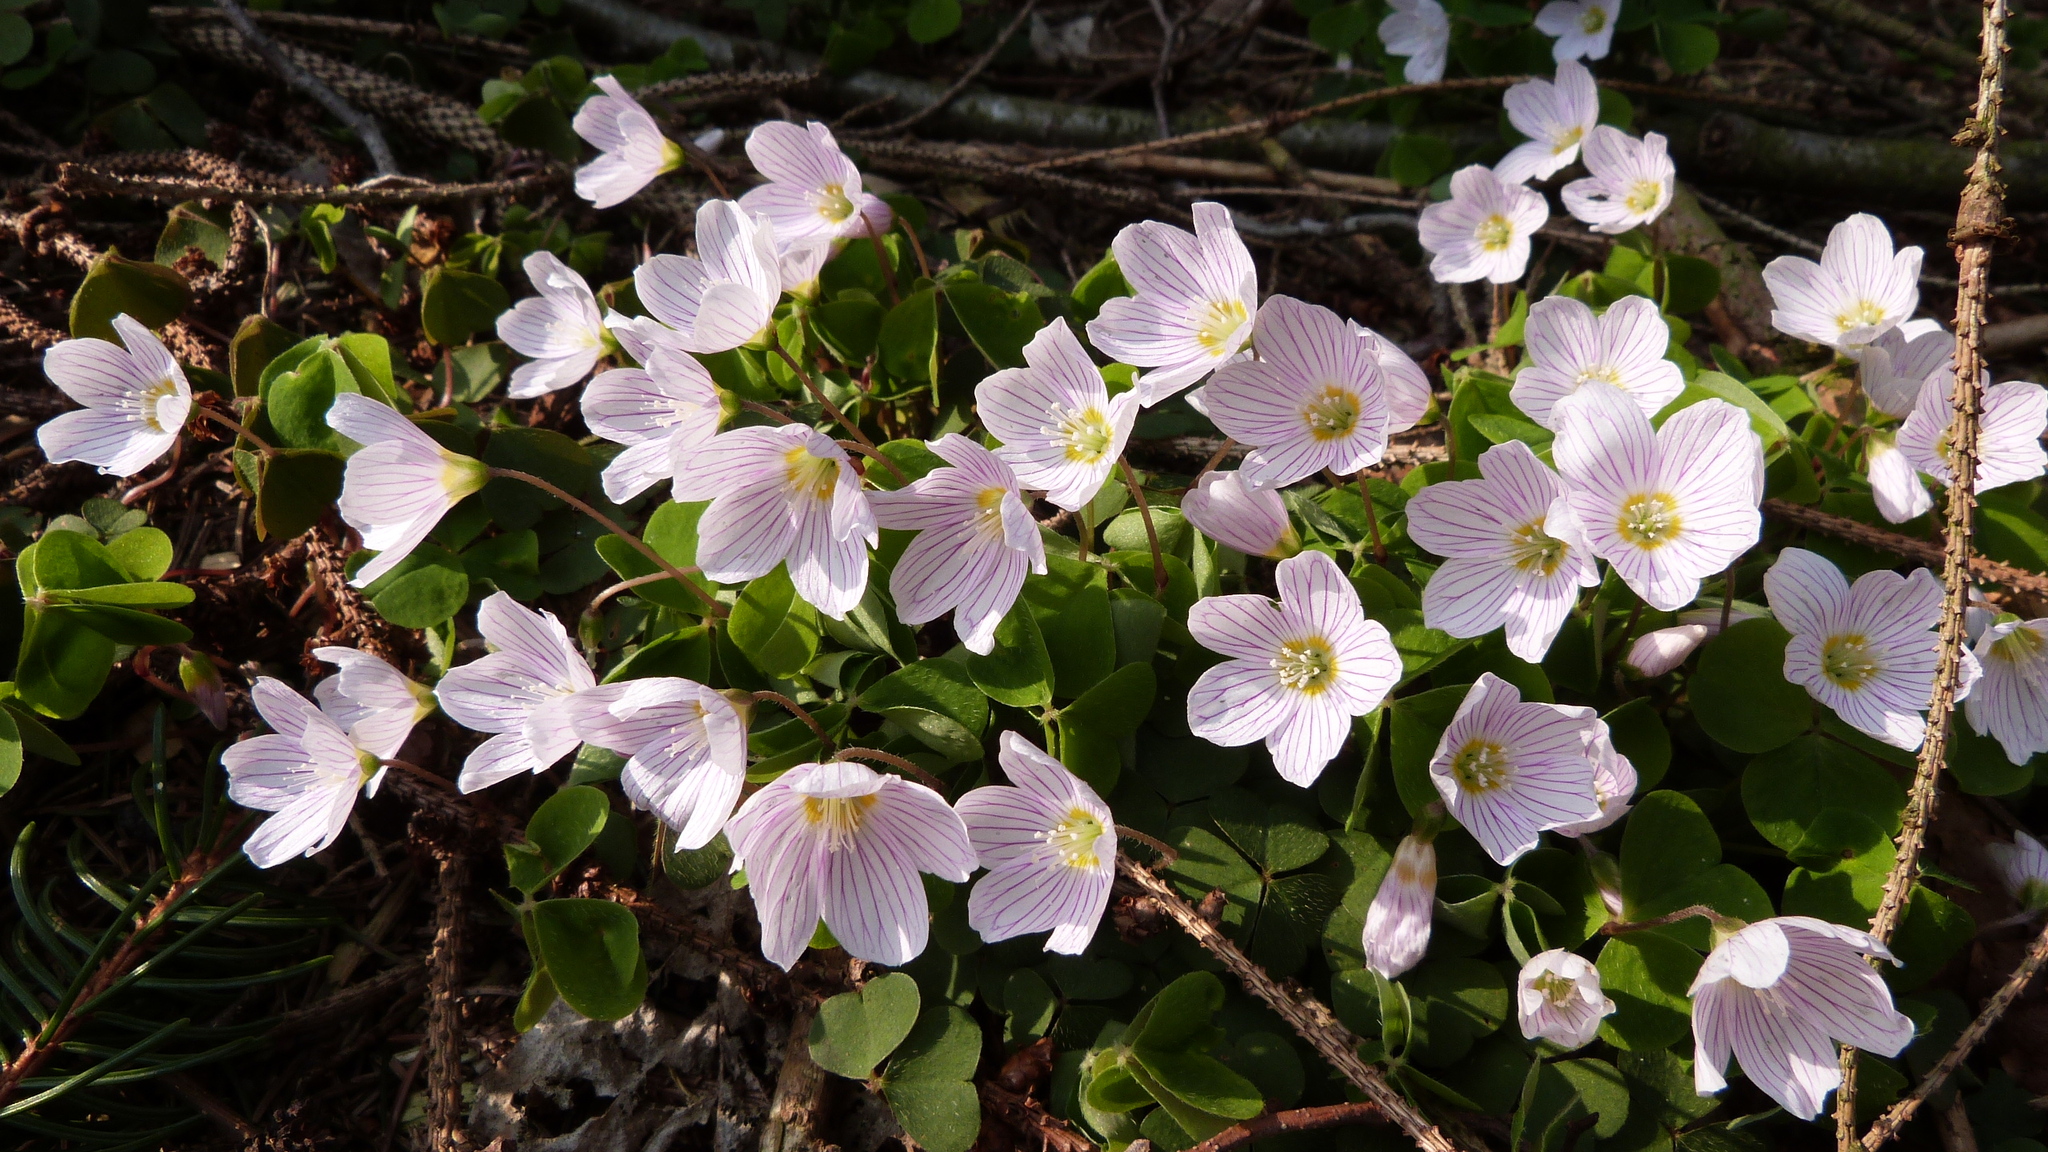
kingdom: Plantae
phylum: Tracheophyta
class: Magnoliopsida
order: Oxalidales
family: Oxalidaceae
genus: Oxalis
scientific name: Oxalis acetosella
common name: Wood-sorrel
